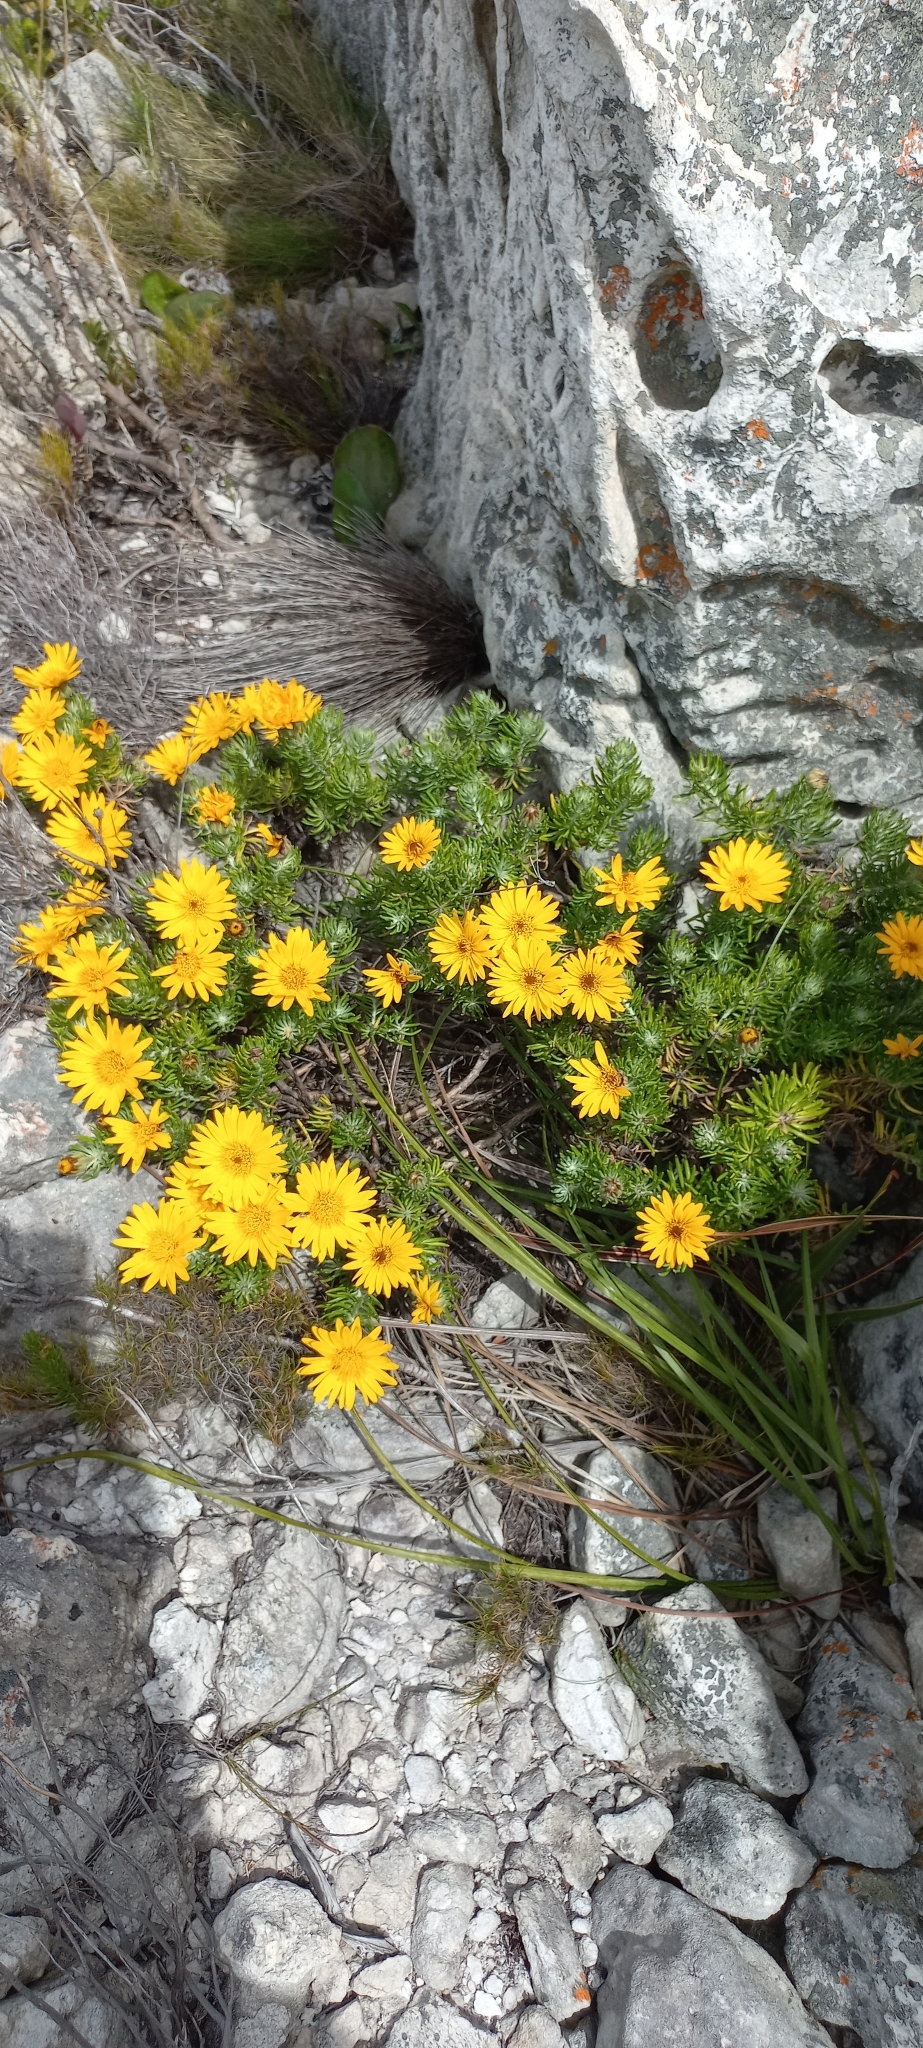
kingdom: Plantae
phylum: Tracheophyta
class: Magnoliopsida
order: Asterales
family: Asteraceae
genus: Heterolepis
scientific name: Heterolepis aliena
